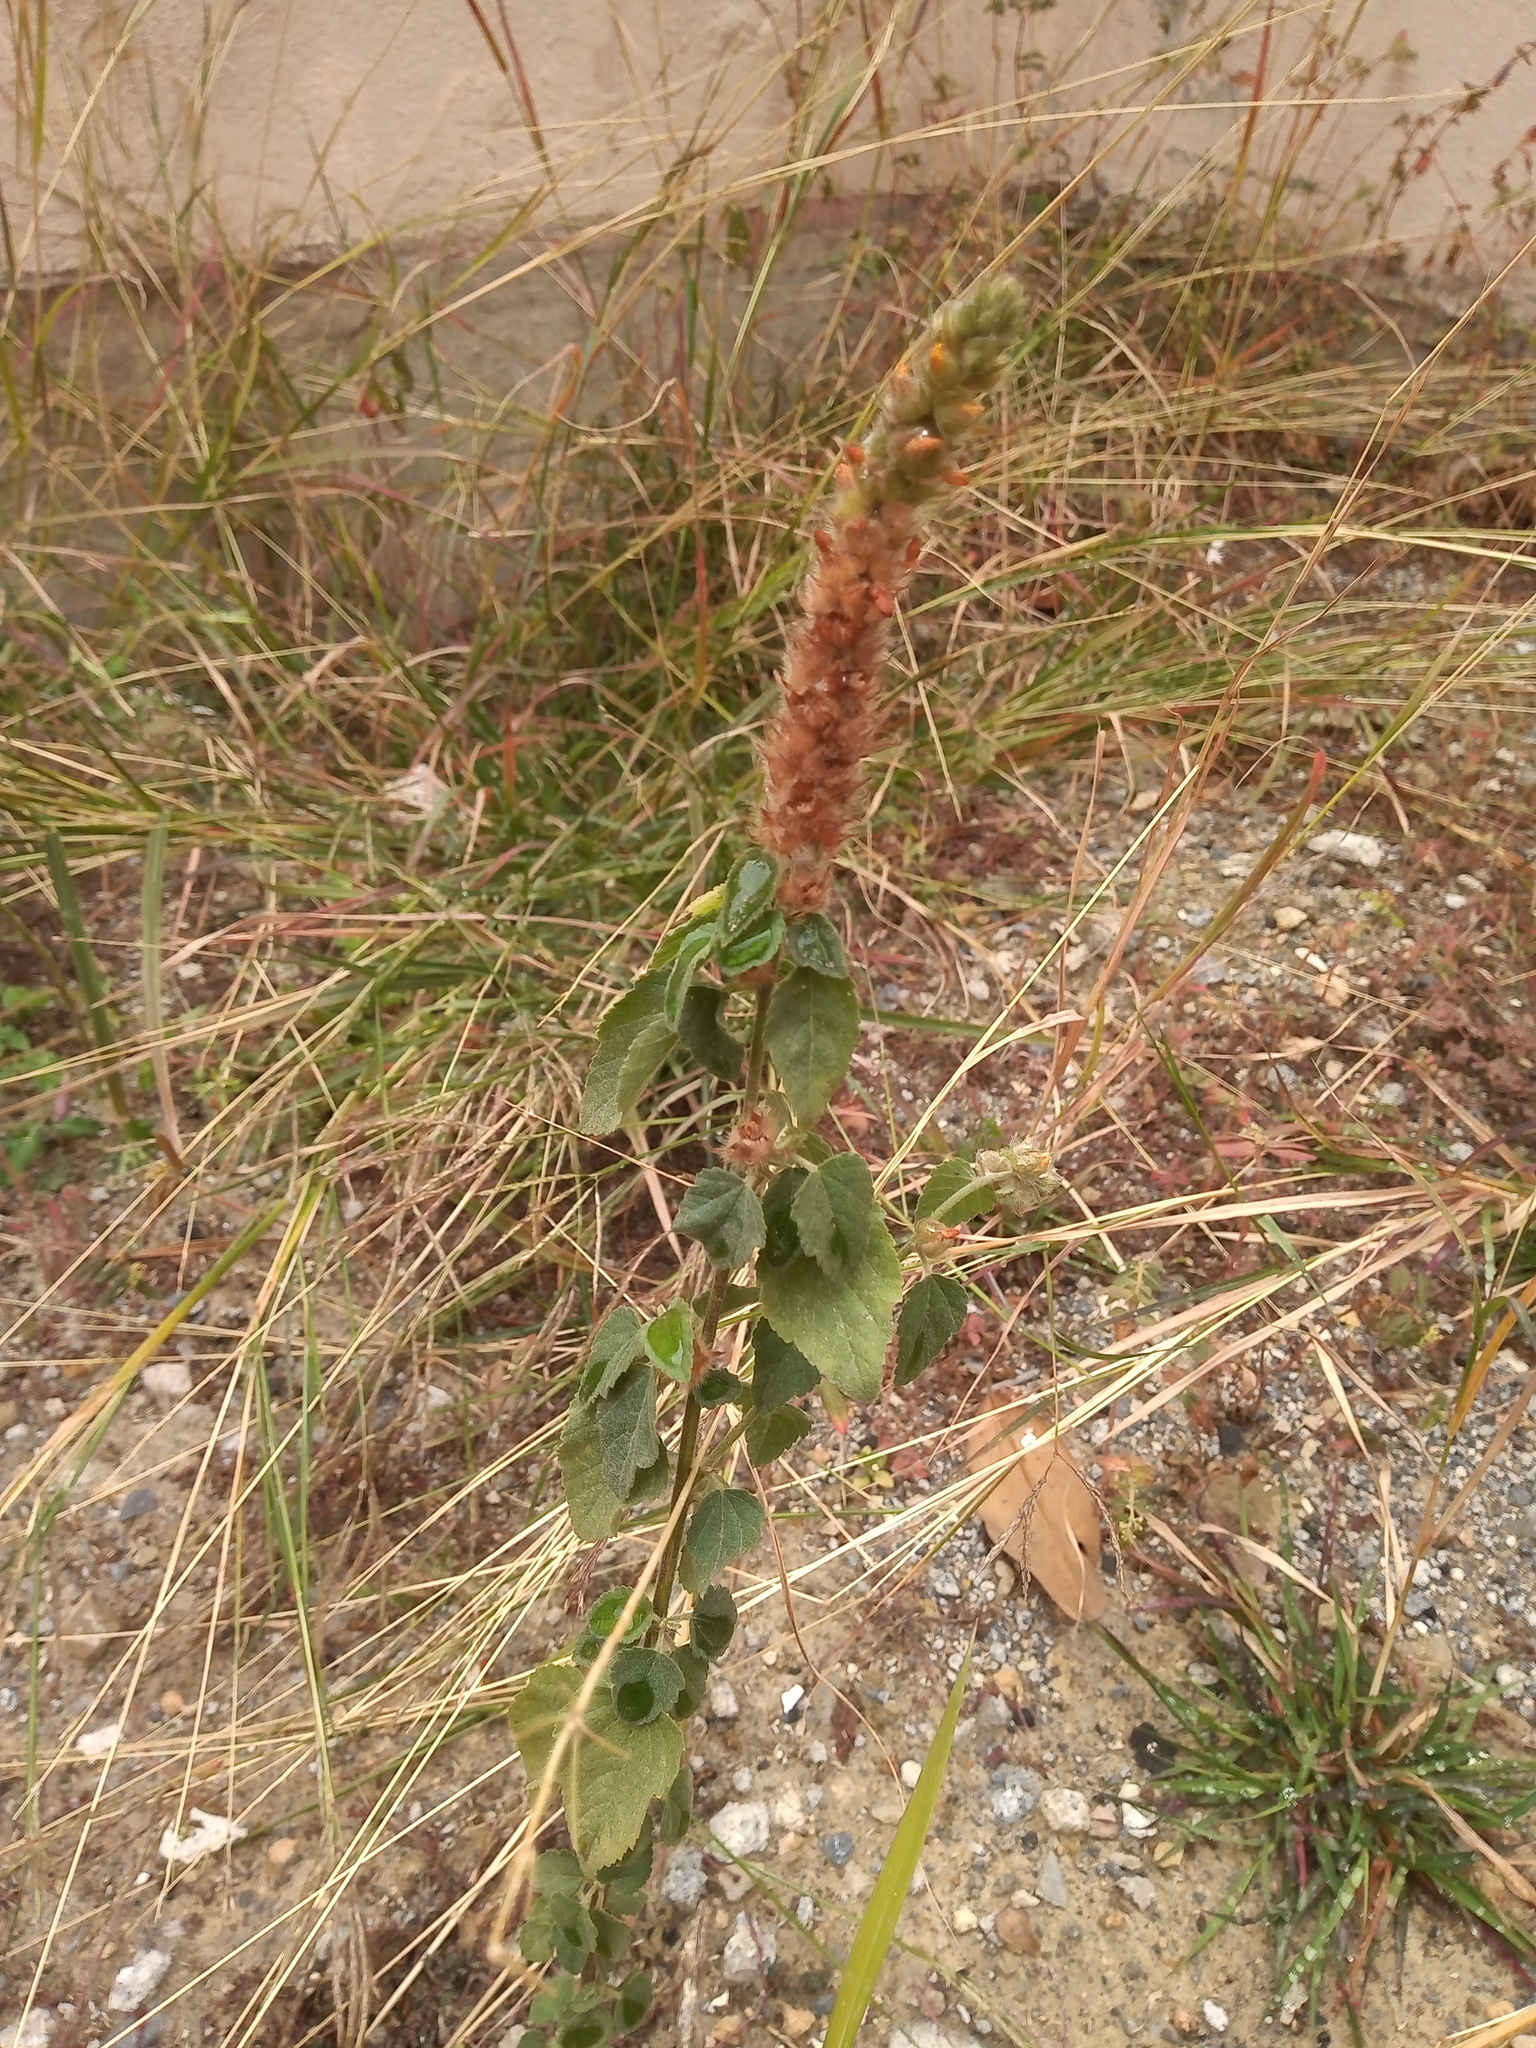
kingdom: Plantae
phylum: Tracheophyta
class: Magnoliopsida
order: Malvales
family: Malvaceae
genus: Malvastrum
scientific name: Malvastrum americanum
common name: Spiked malvastrum
